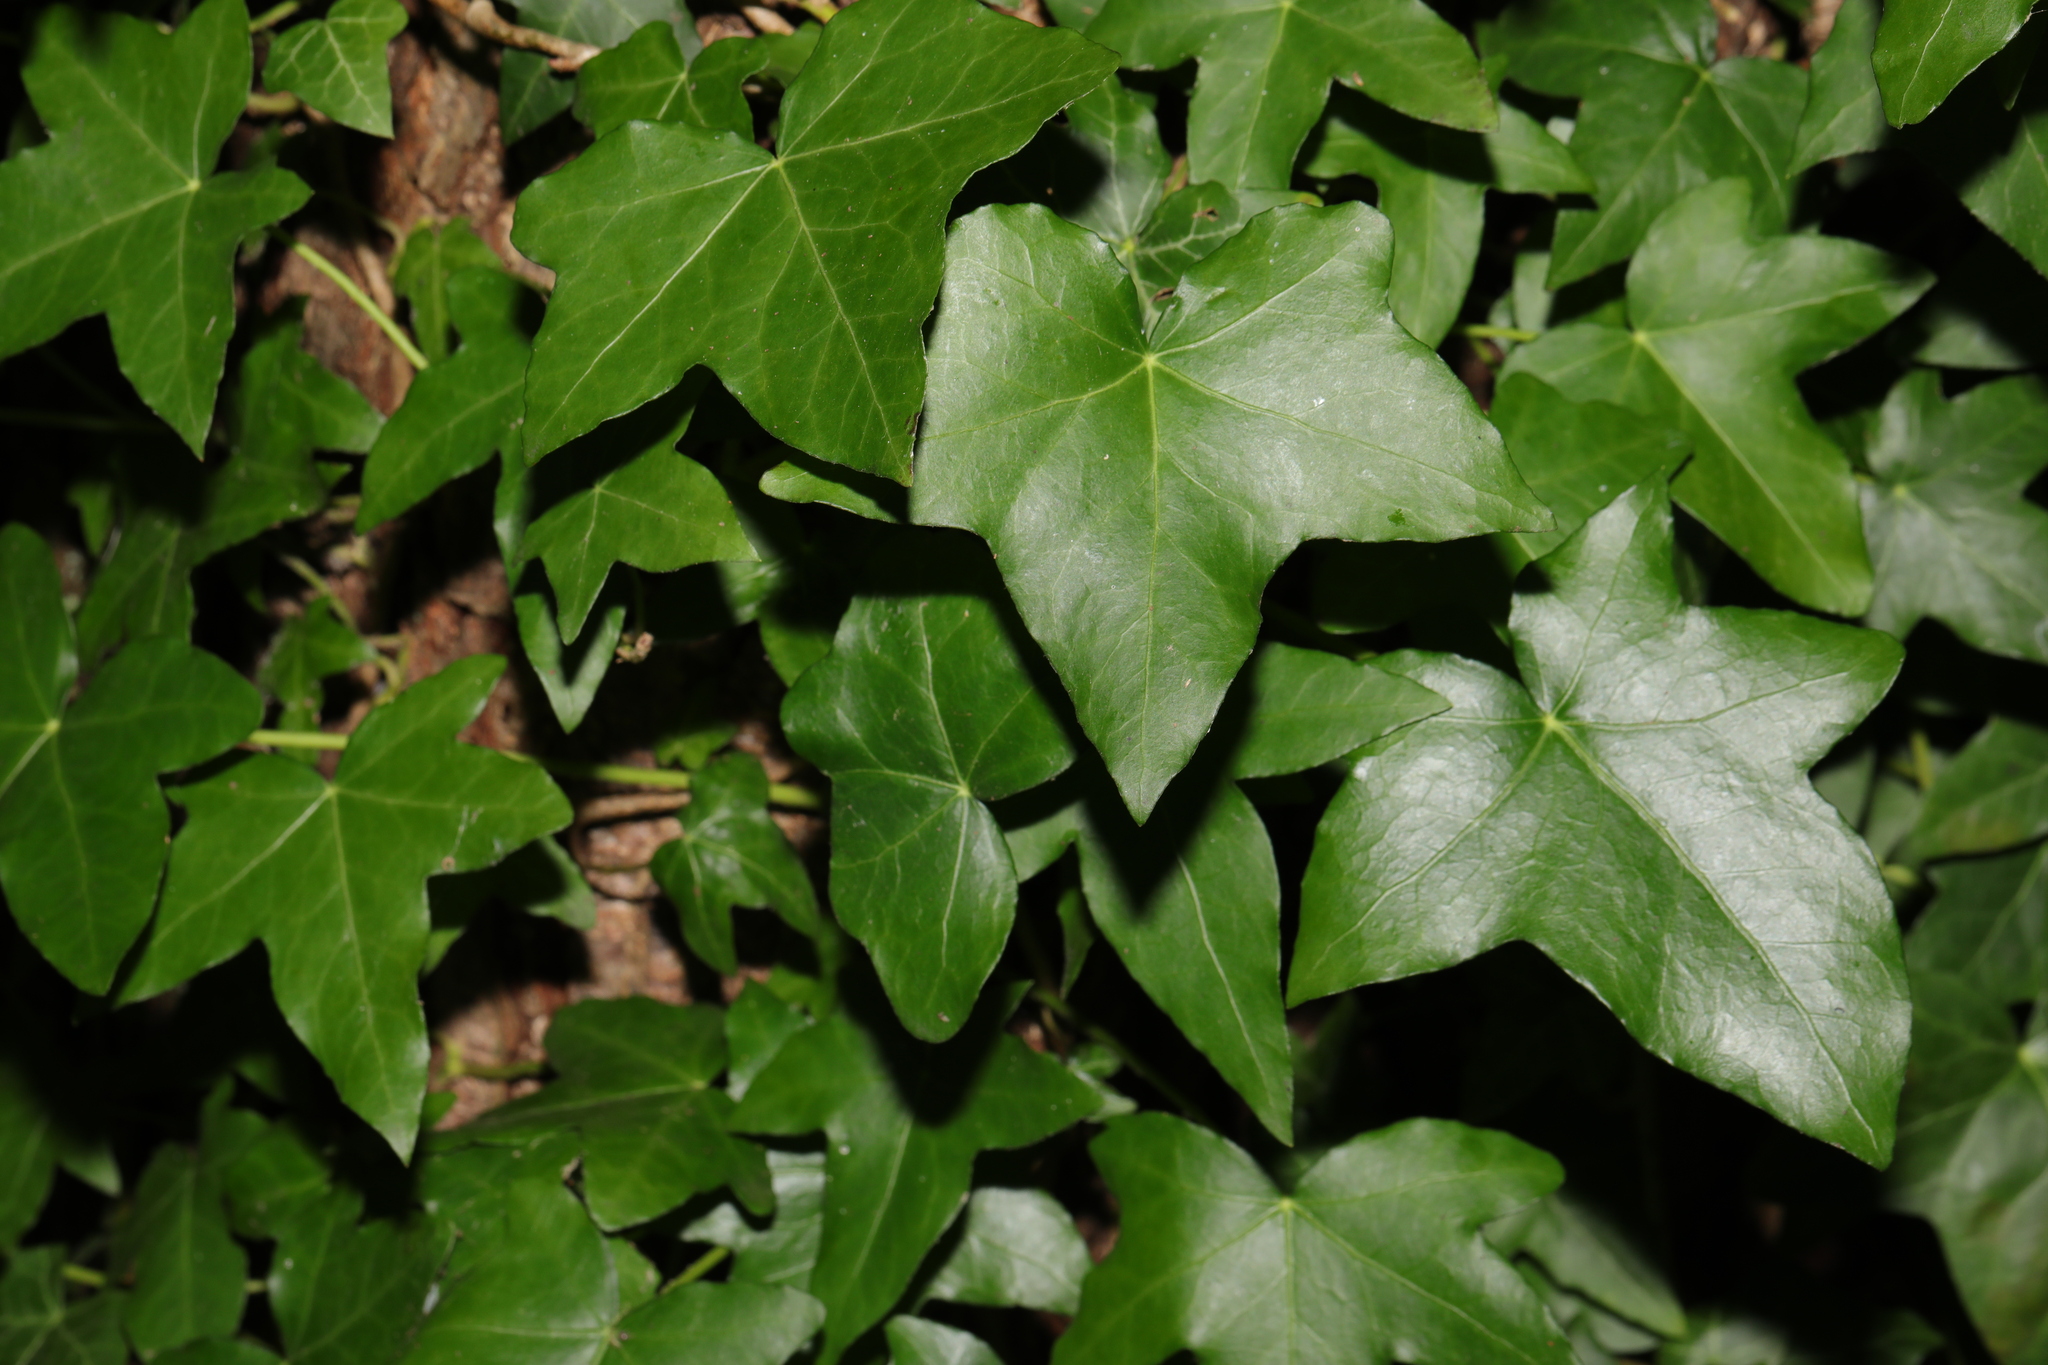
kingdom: Plantae
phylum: Tracheophyta
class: Magnoliopsida
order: Apiales
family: Araliaceae
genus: Hedera
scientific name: Hedera helix
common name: Ivy
